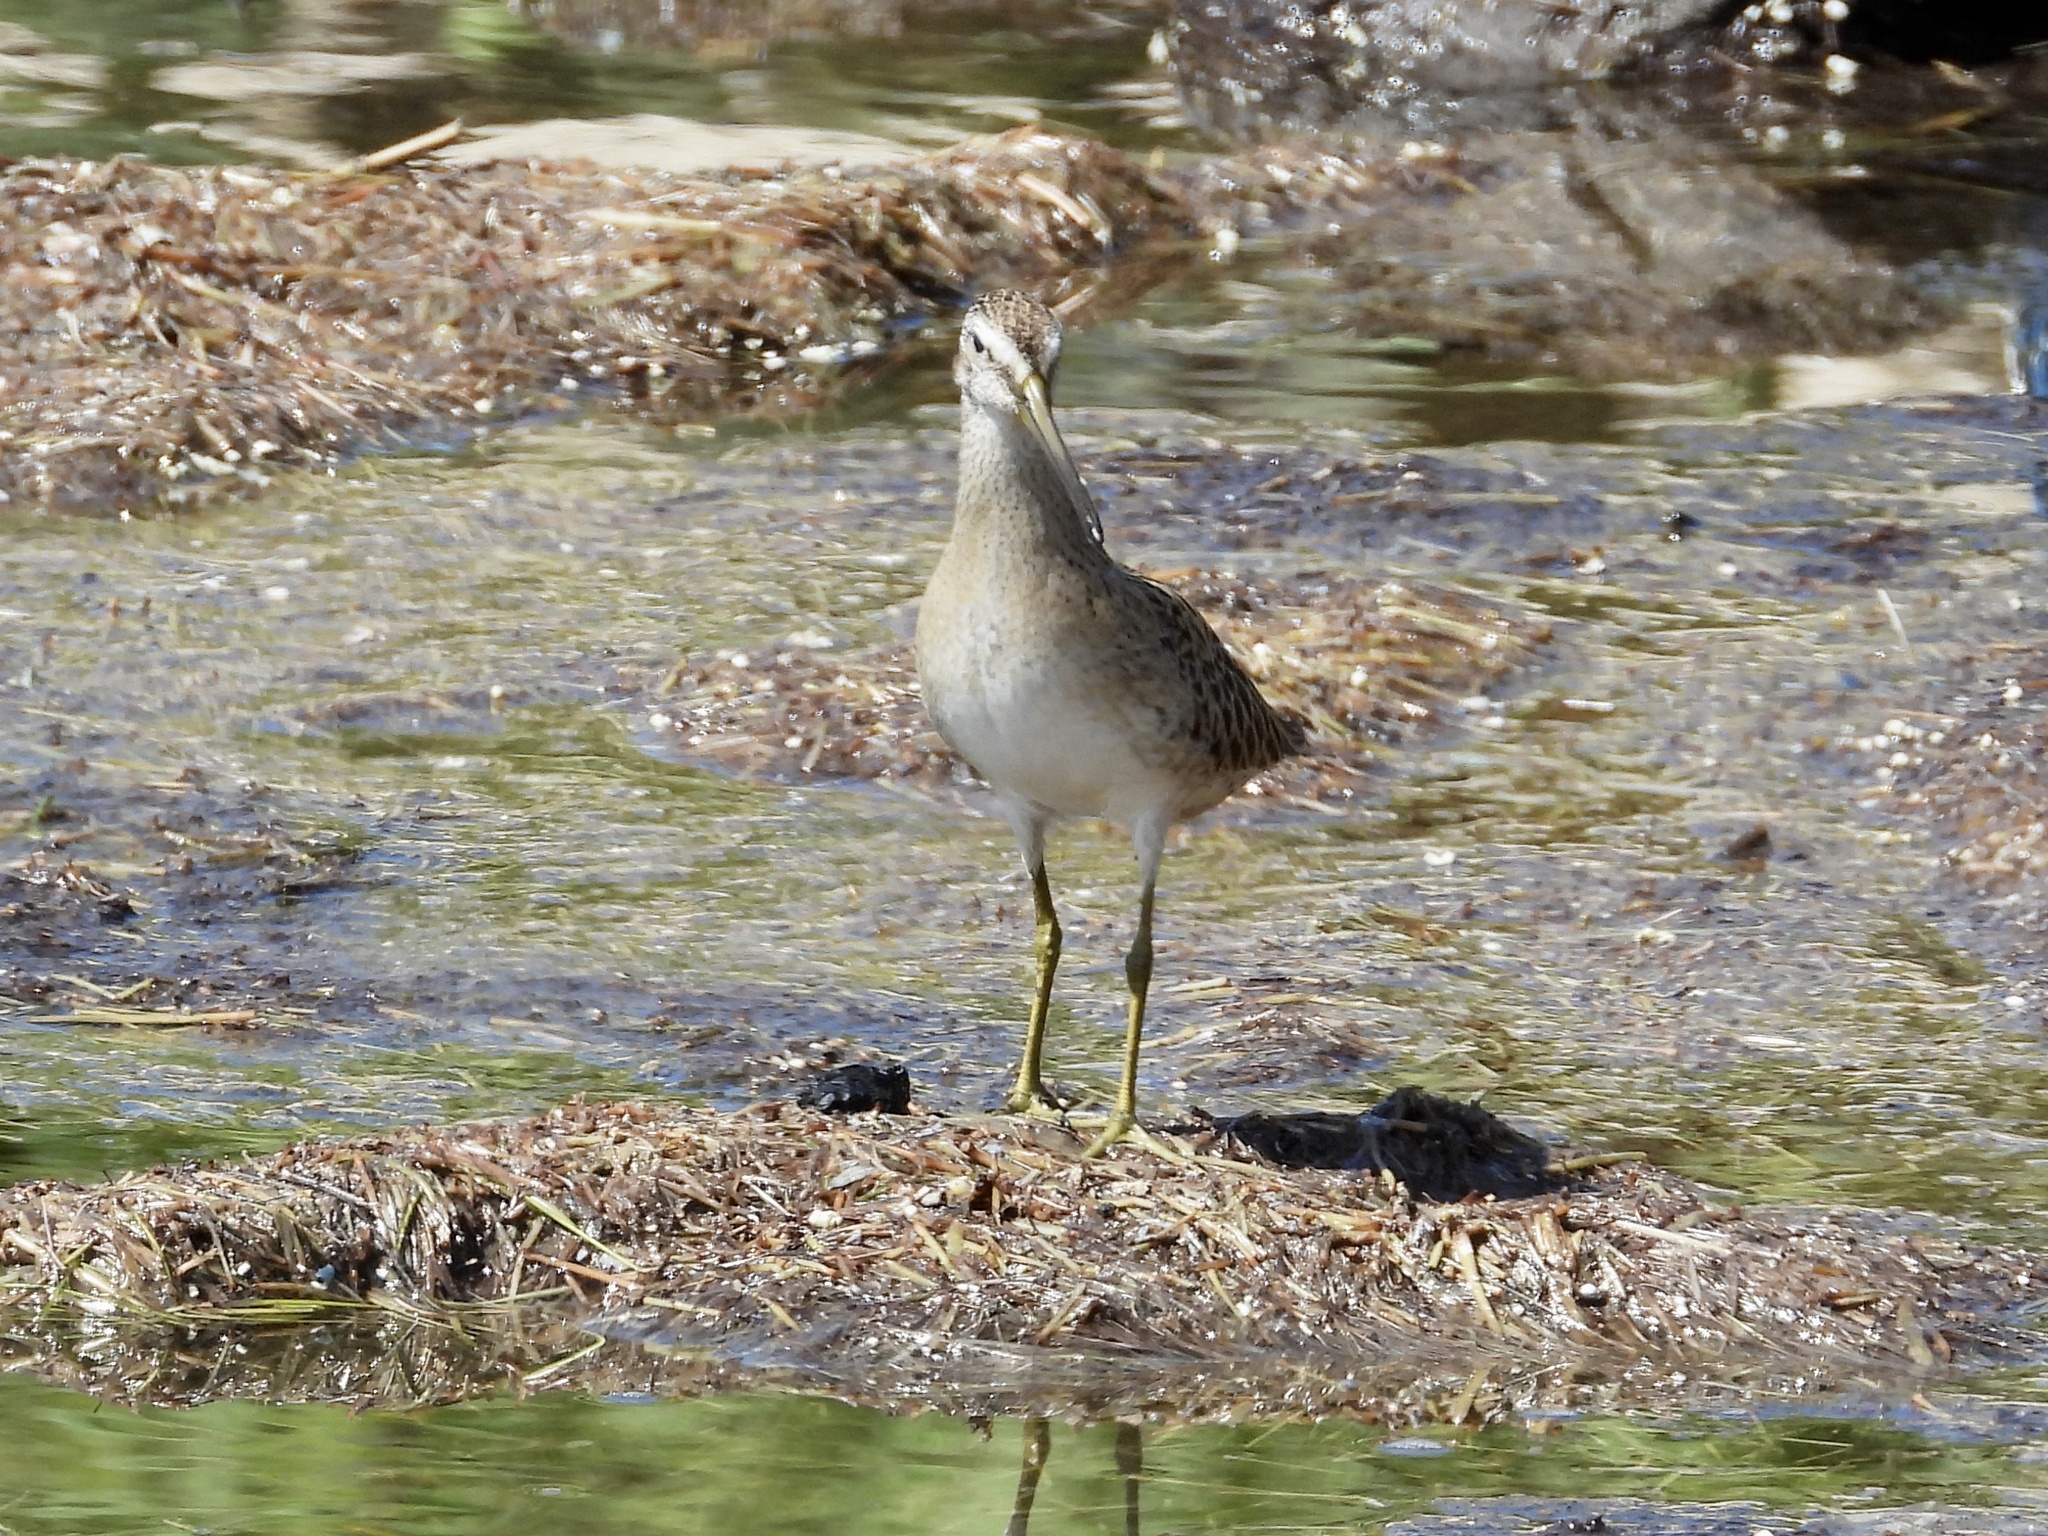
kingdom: Animalia
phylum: Chordata
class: Aves
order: Charadriiformes
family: Scolopacidae
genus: Limnodromus
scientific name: Limnodromus griseus
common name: Short-billed dowitcher
